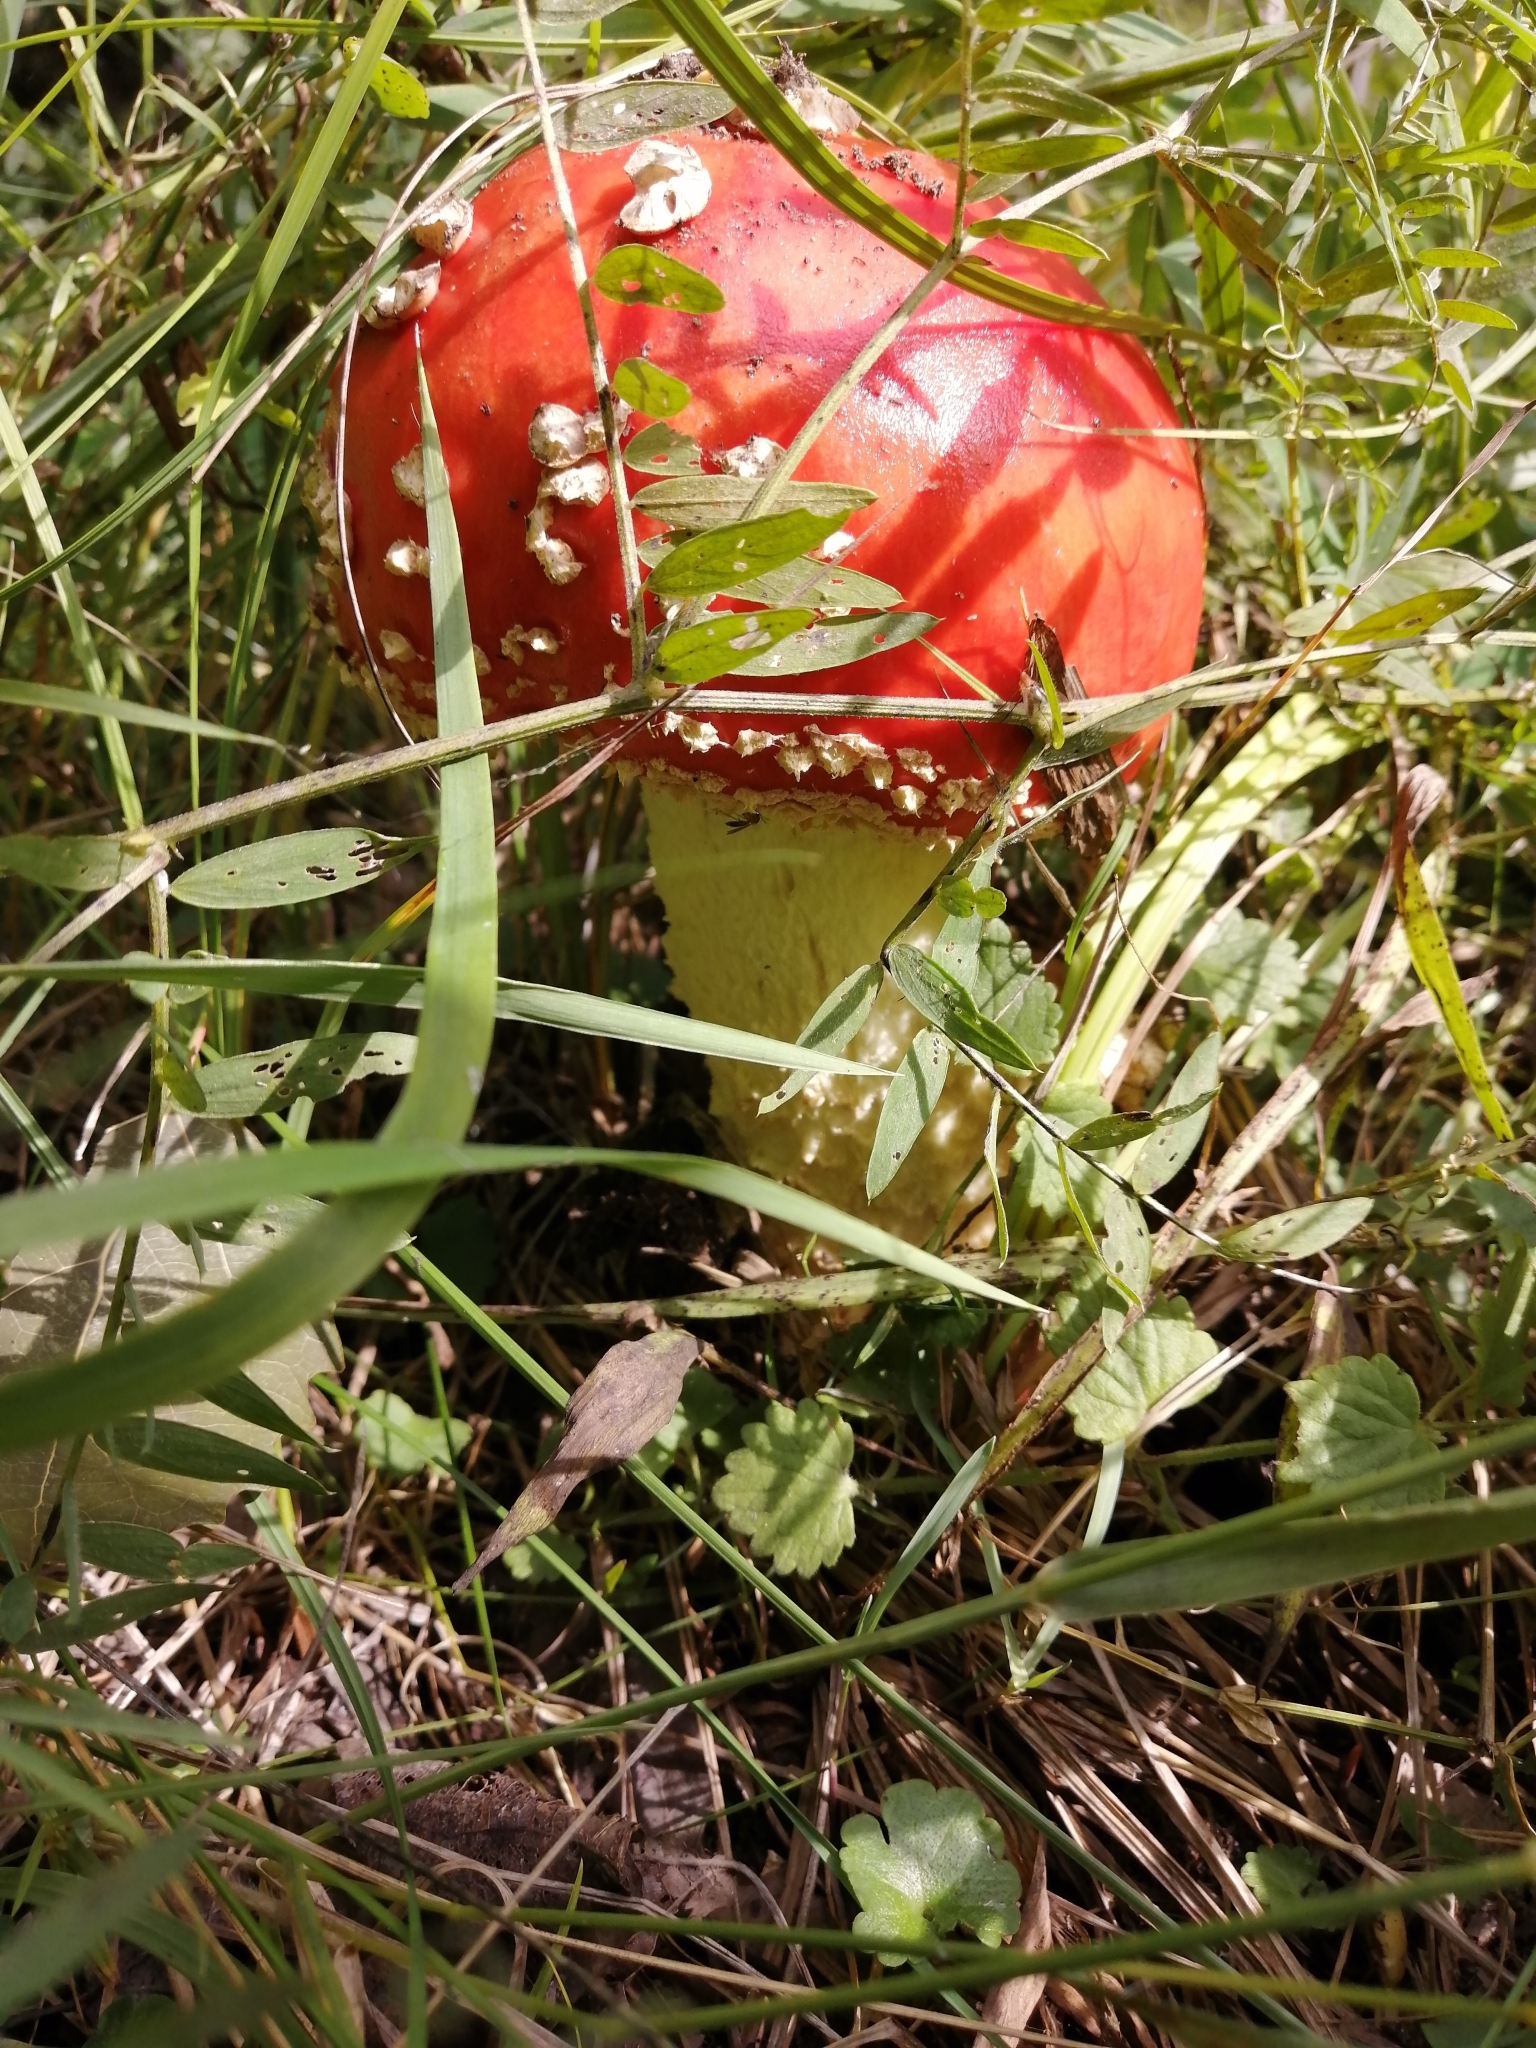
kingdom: Fungi
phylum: Basidiomycota
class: Agaricomycetes
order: Agaricales
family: Amanitaceae
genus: Amanita
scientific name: Amanita muscaria
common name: Fly agaric
